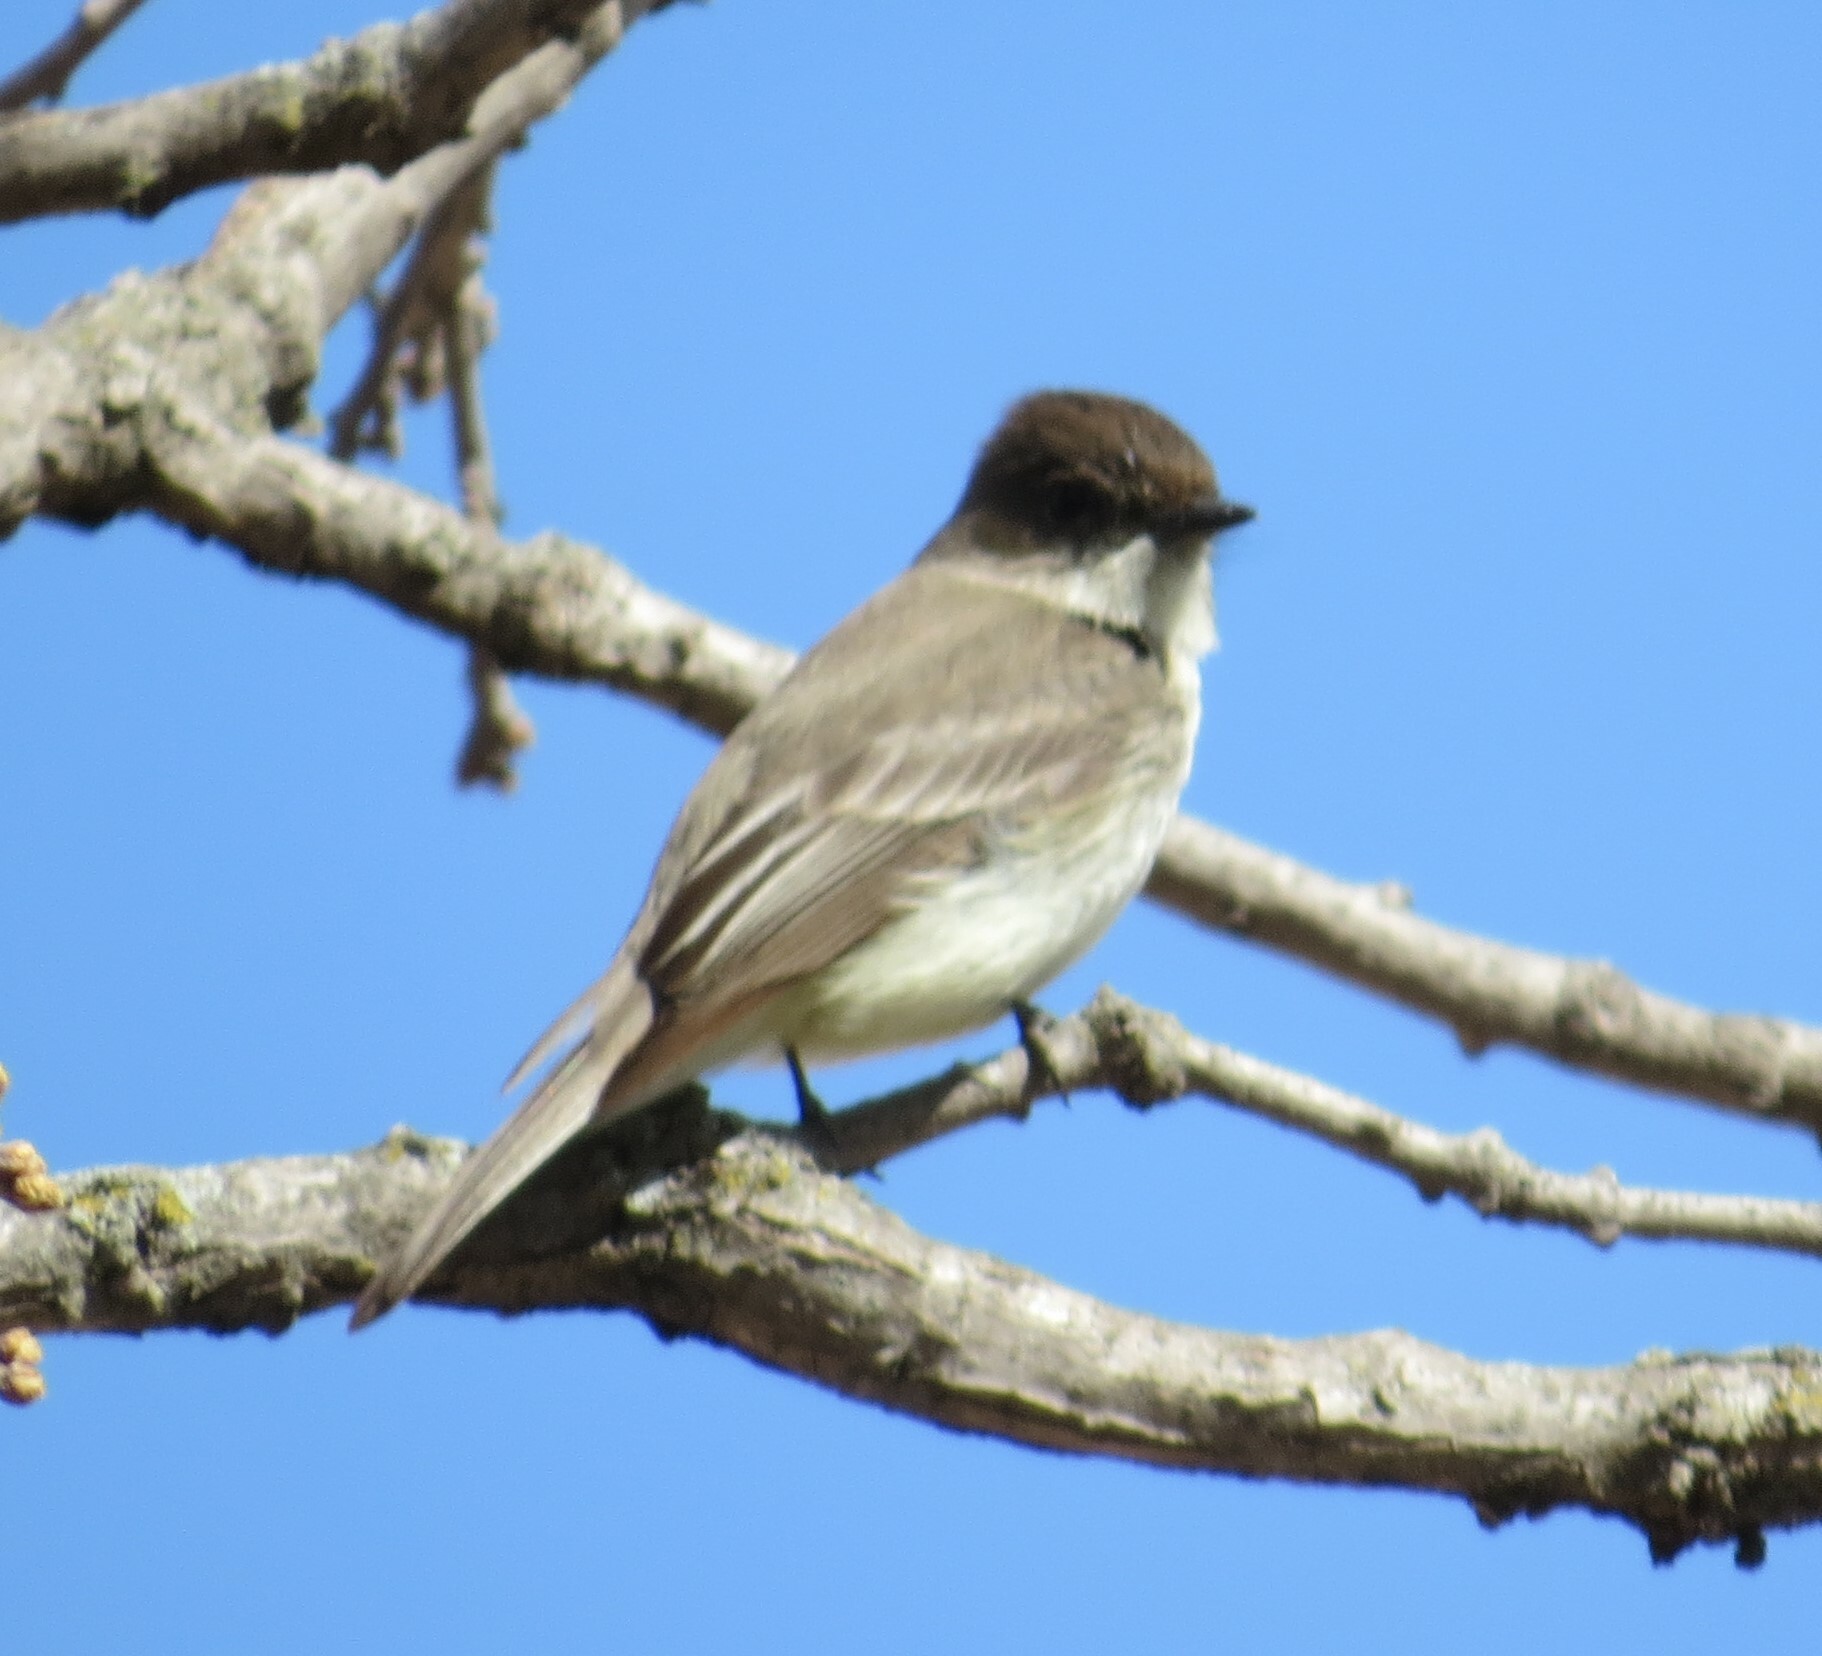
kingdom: Animalia
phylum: Chordata
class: Aves
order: Passeriformes
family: Tyrannidae
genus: Sayornis
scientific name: Sayornis phoebe
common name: Eastern phoebe
